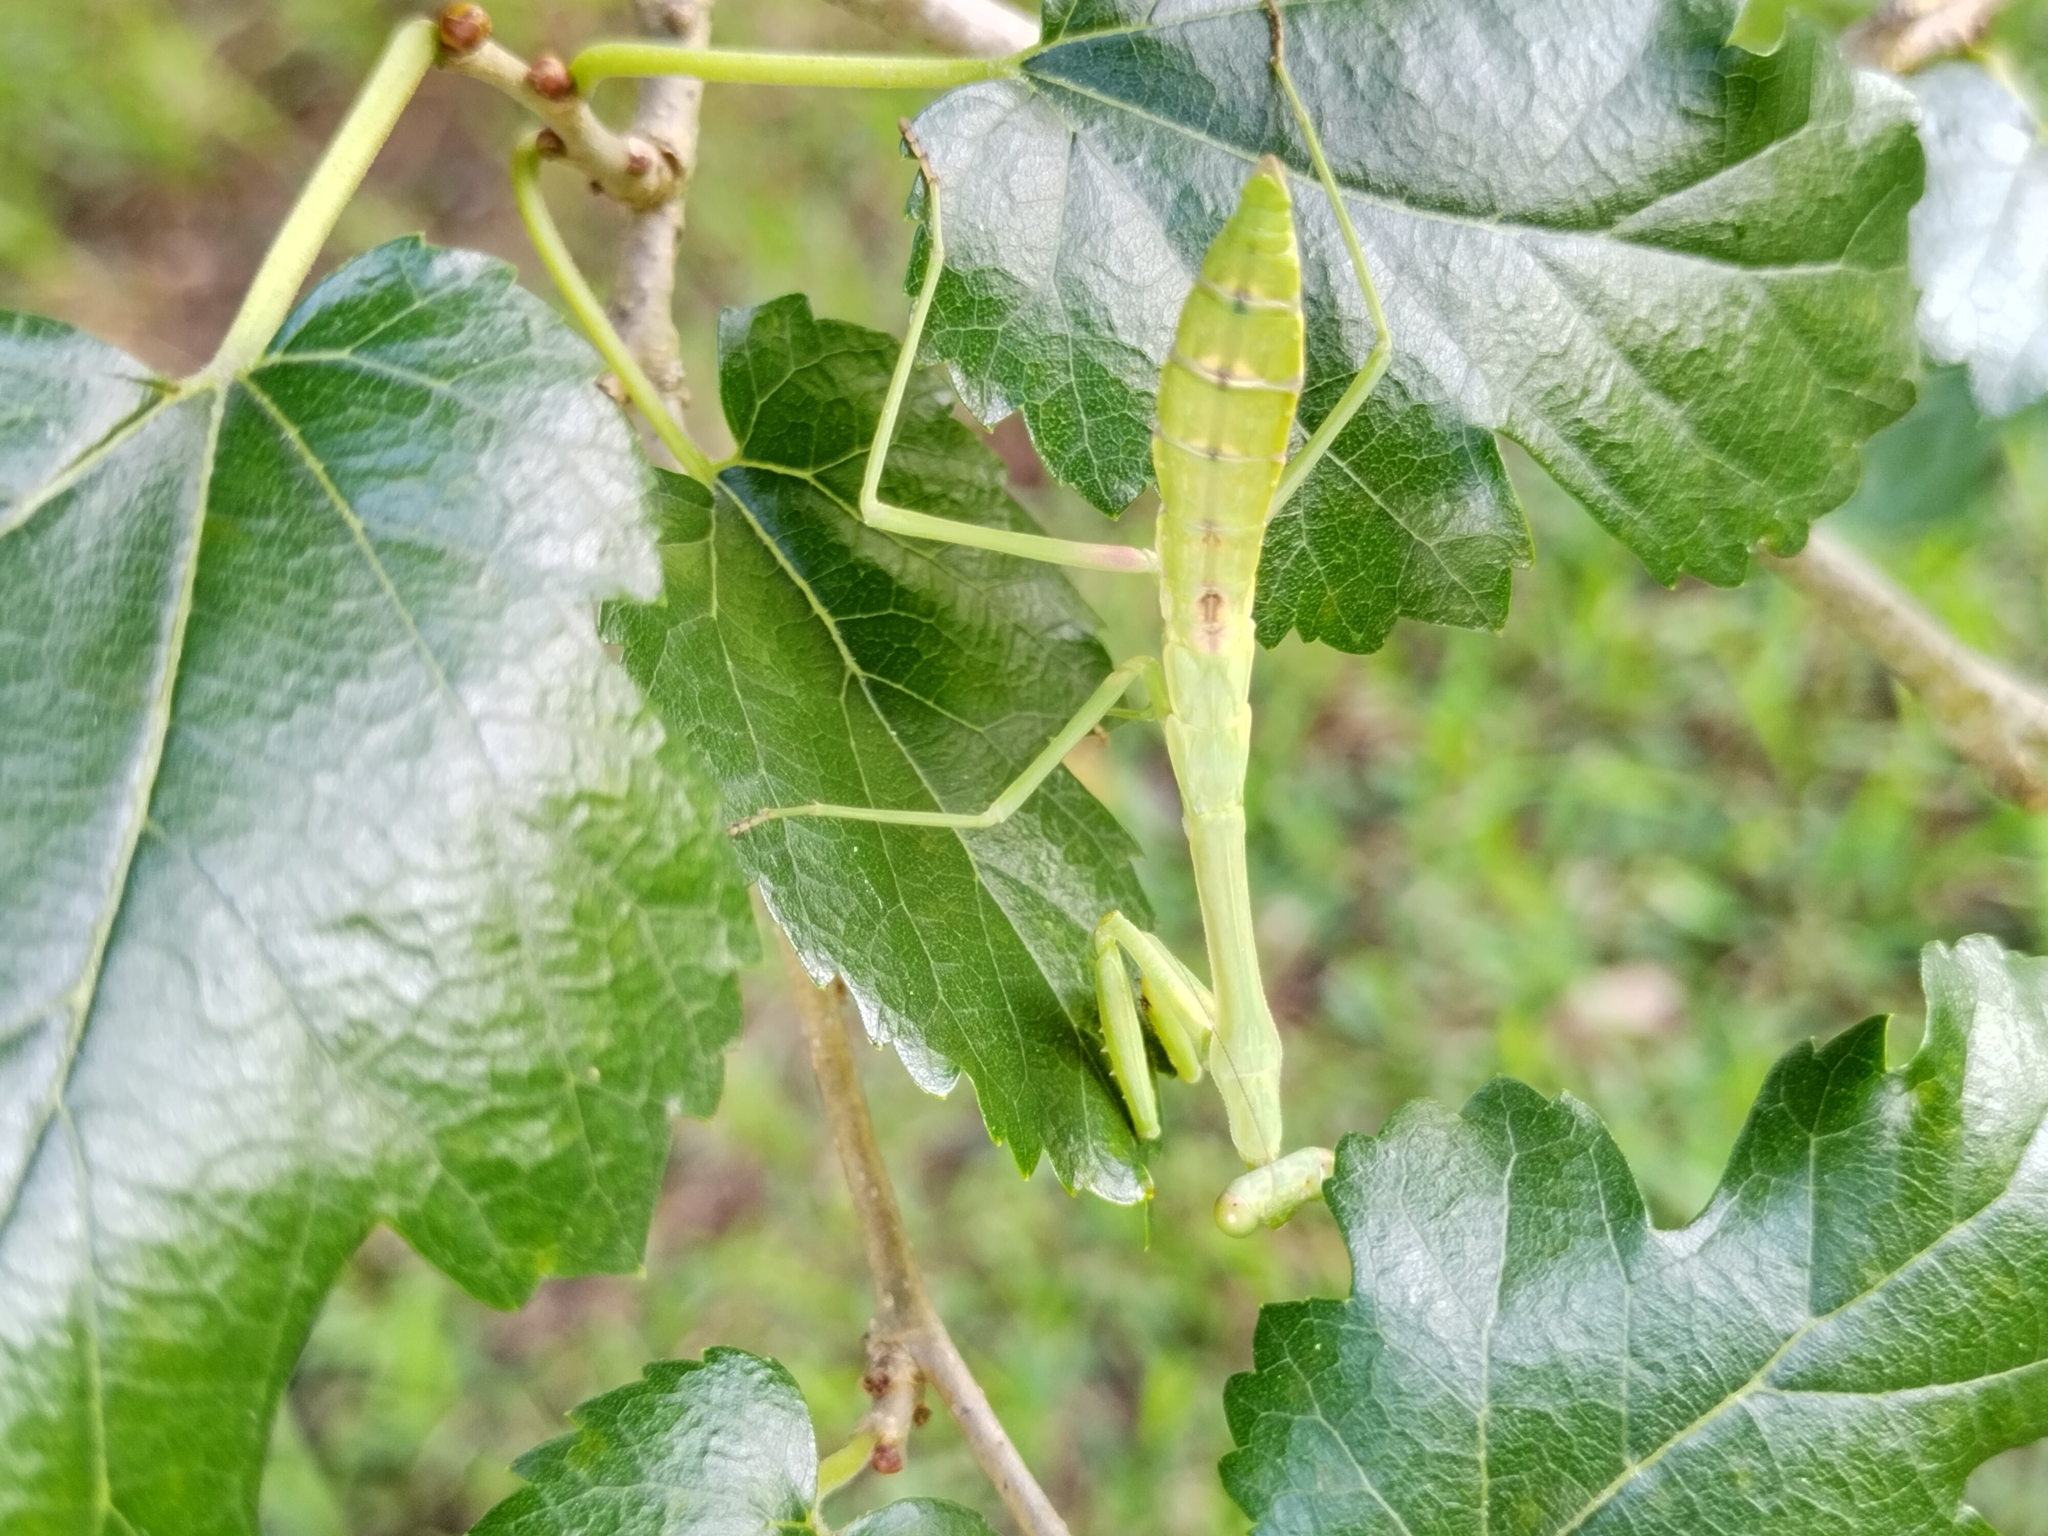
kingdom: Animalia
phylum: Arthropoda
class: Insecta
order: Mantodea
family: Mantidae
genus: Stagmomantis
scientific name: Stagmomantis carolina
